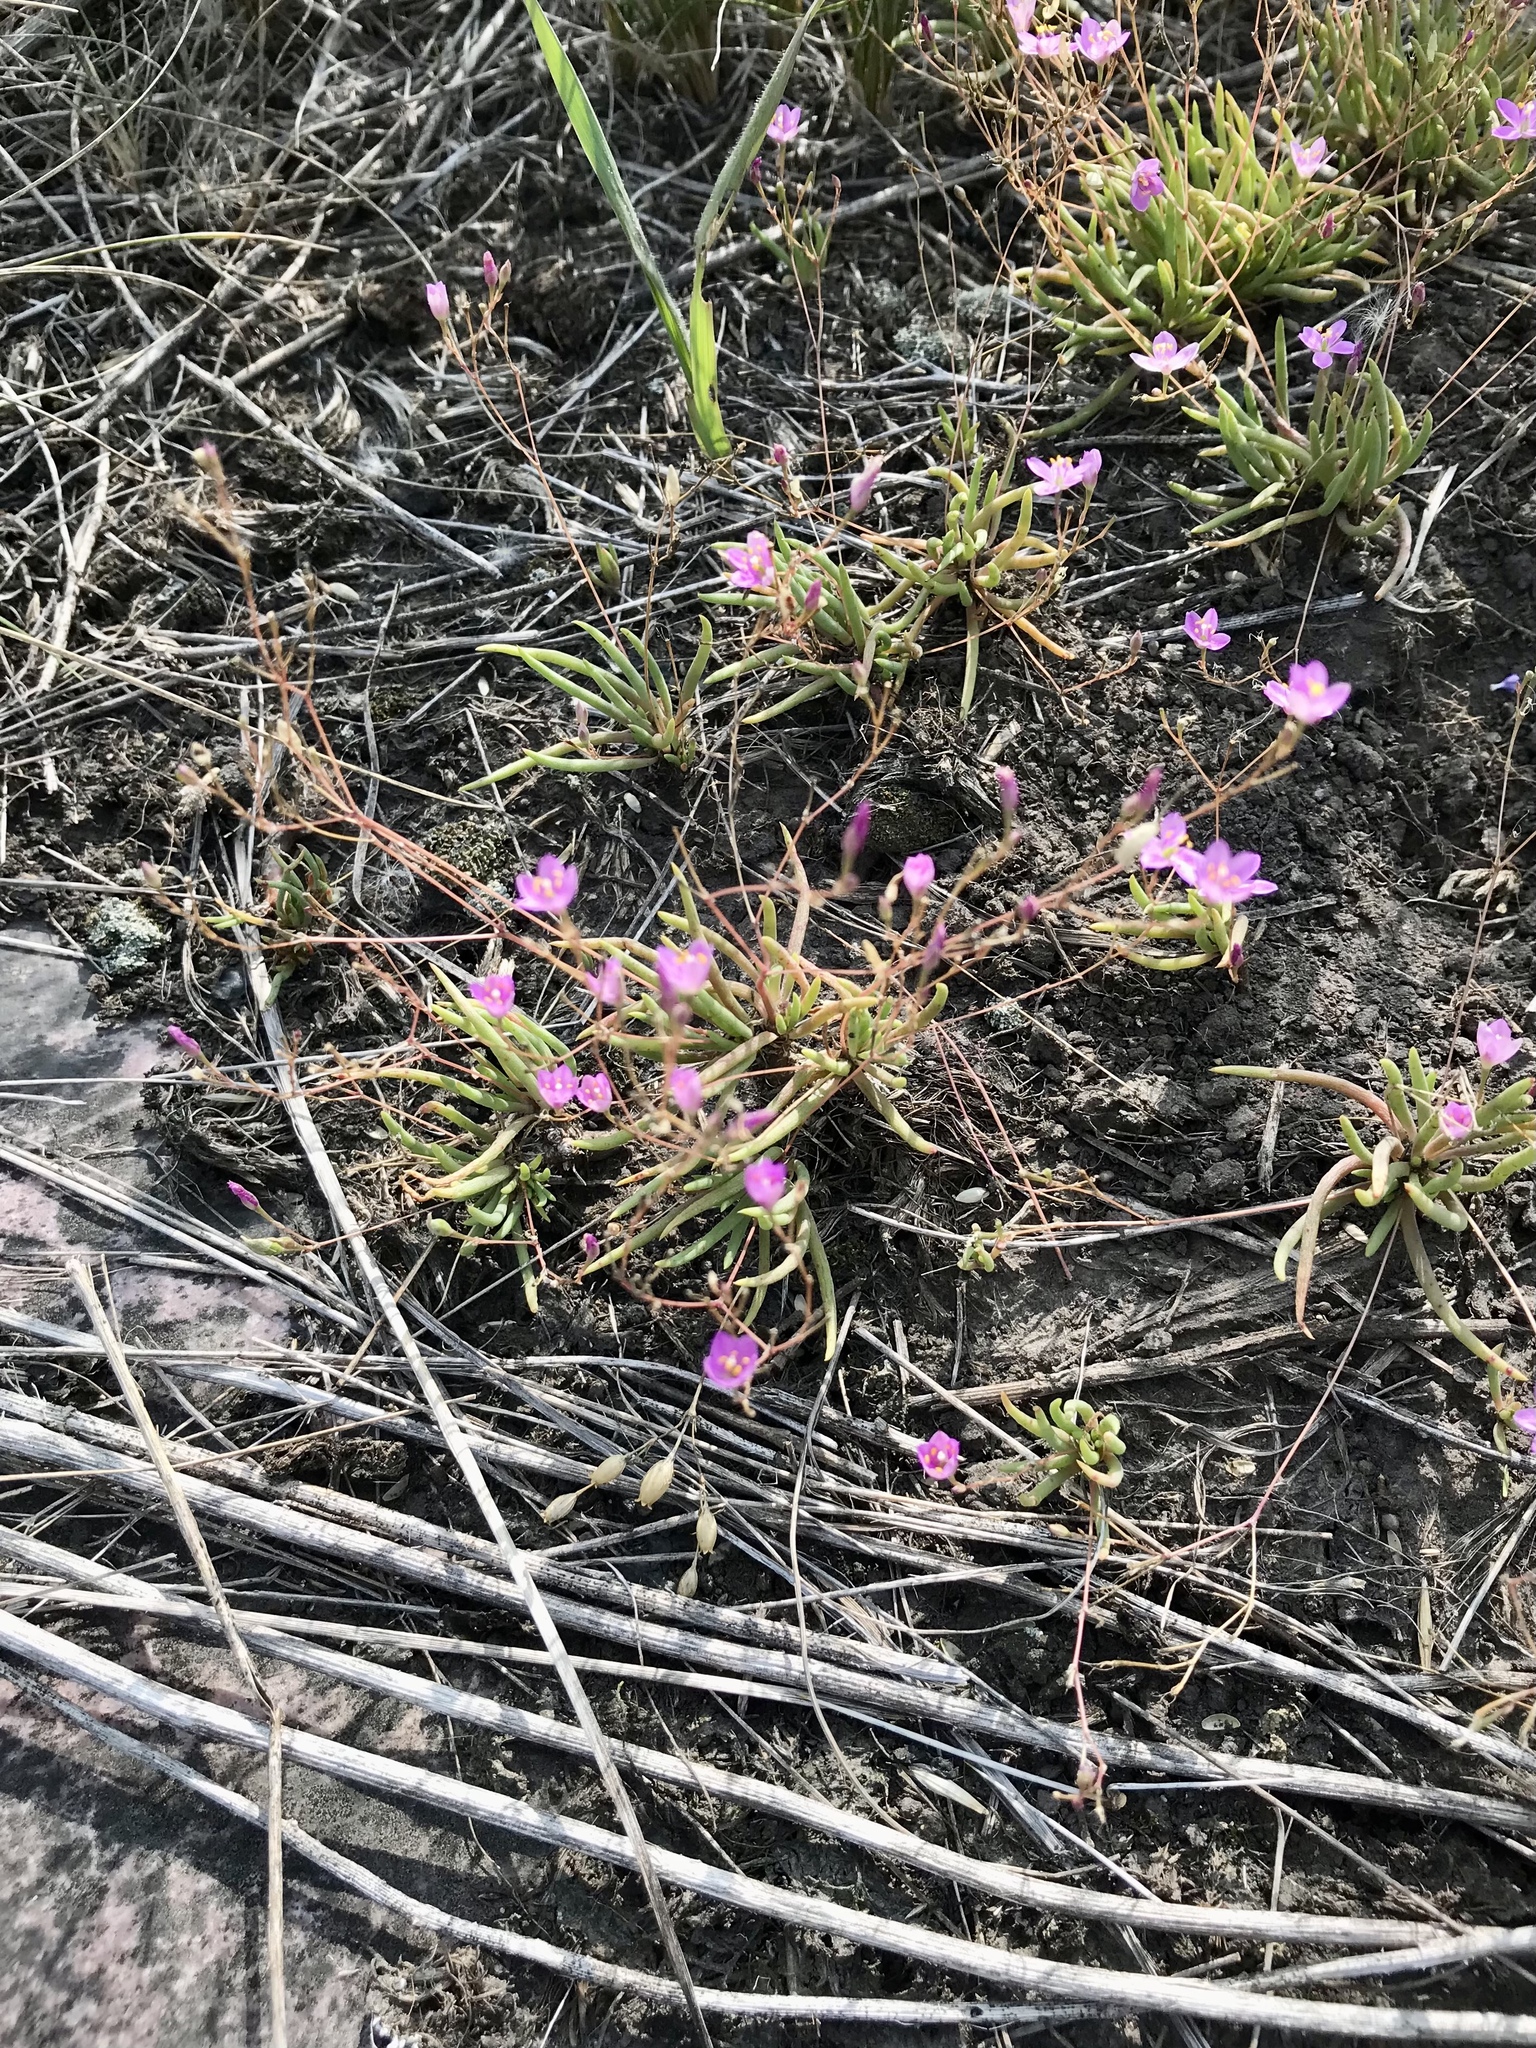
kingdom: Plantae
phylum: Tracheophyta
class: Magnoliopsida
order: Caryophyllales
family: Montiaceae
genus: Phemeranthus
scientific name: Phemeranthus parviflorus
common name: Sunbright
